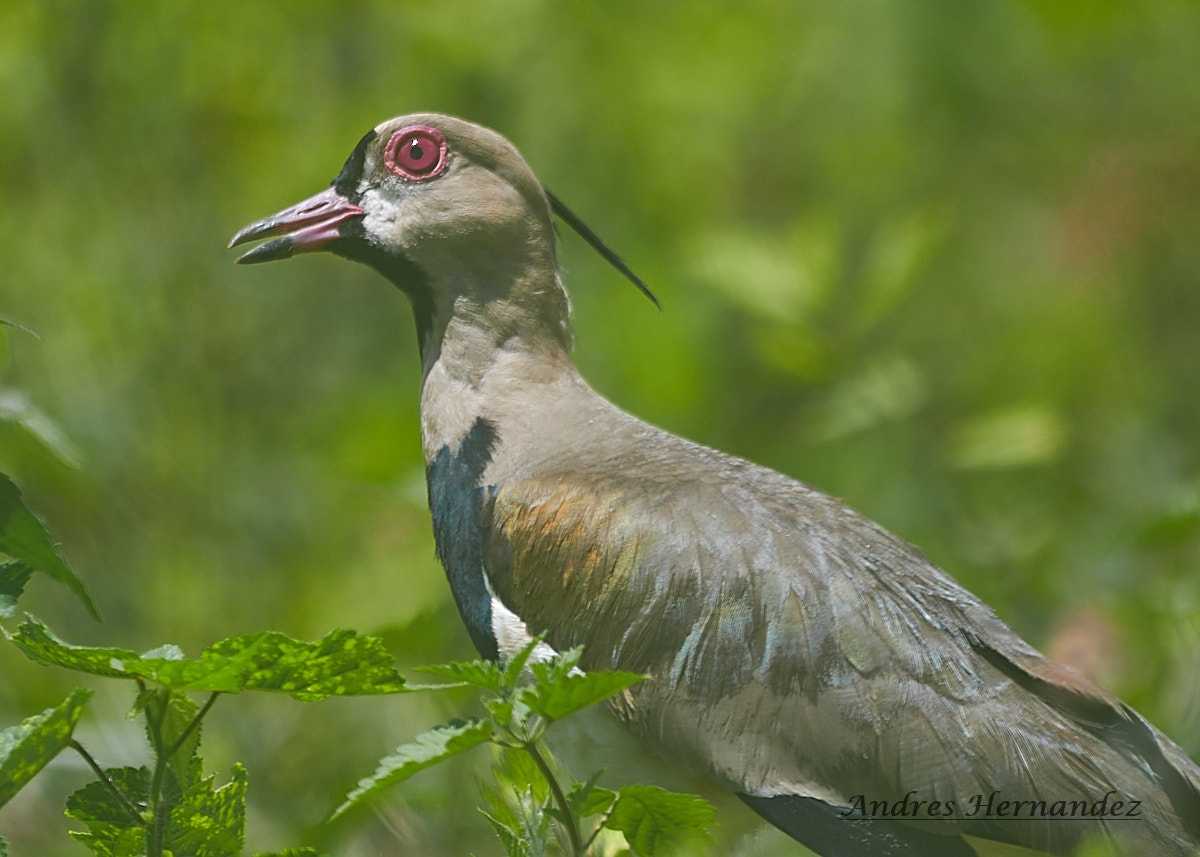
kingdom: Animalia
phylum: Chordata
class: Aves
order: Charadriiformes
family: Charadriidae
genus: Vanellus
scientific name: Vanellus chilensis
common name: Southern lapwing
